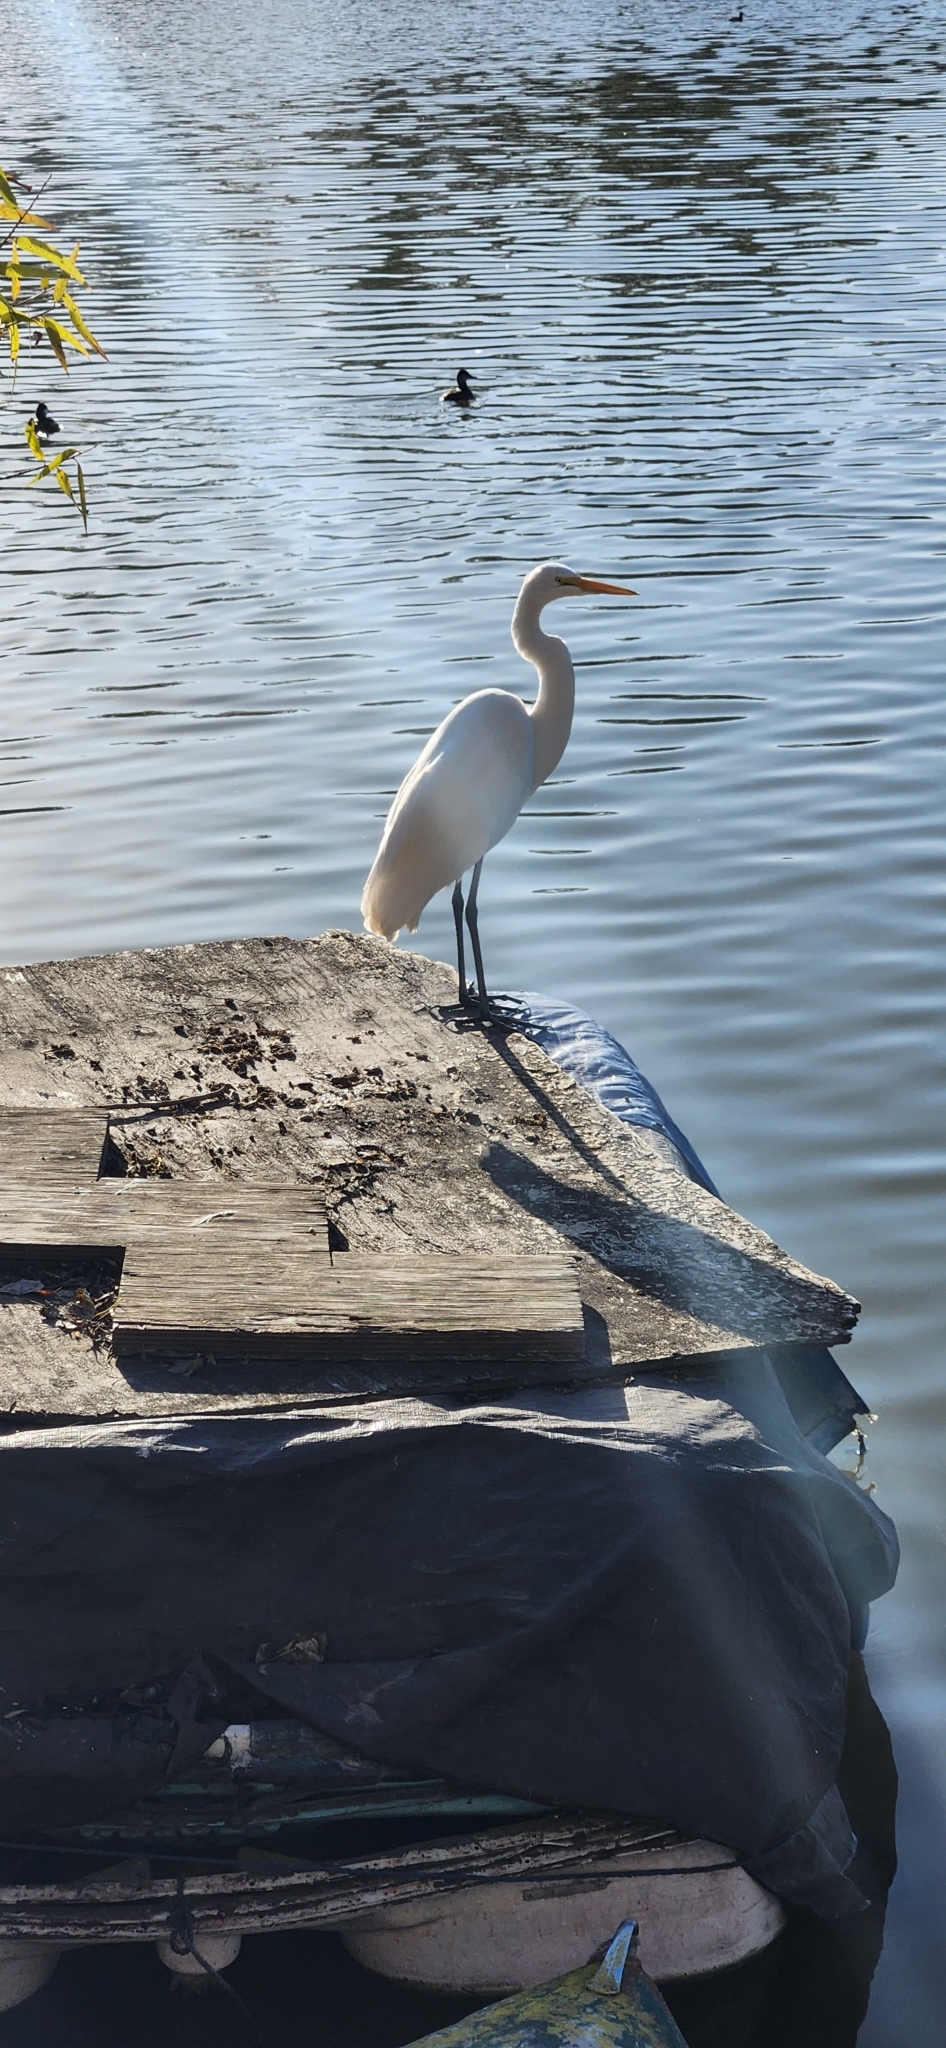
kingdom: Animalia
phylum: Chordata
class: Aves
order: Pelecaniformes
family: Ardeidae
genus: Ardea
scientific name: Ardea alba
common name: Great egret
